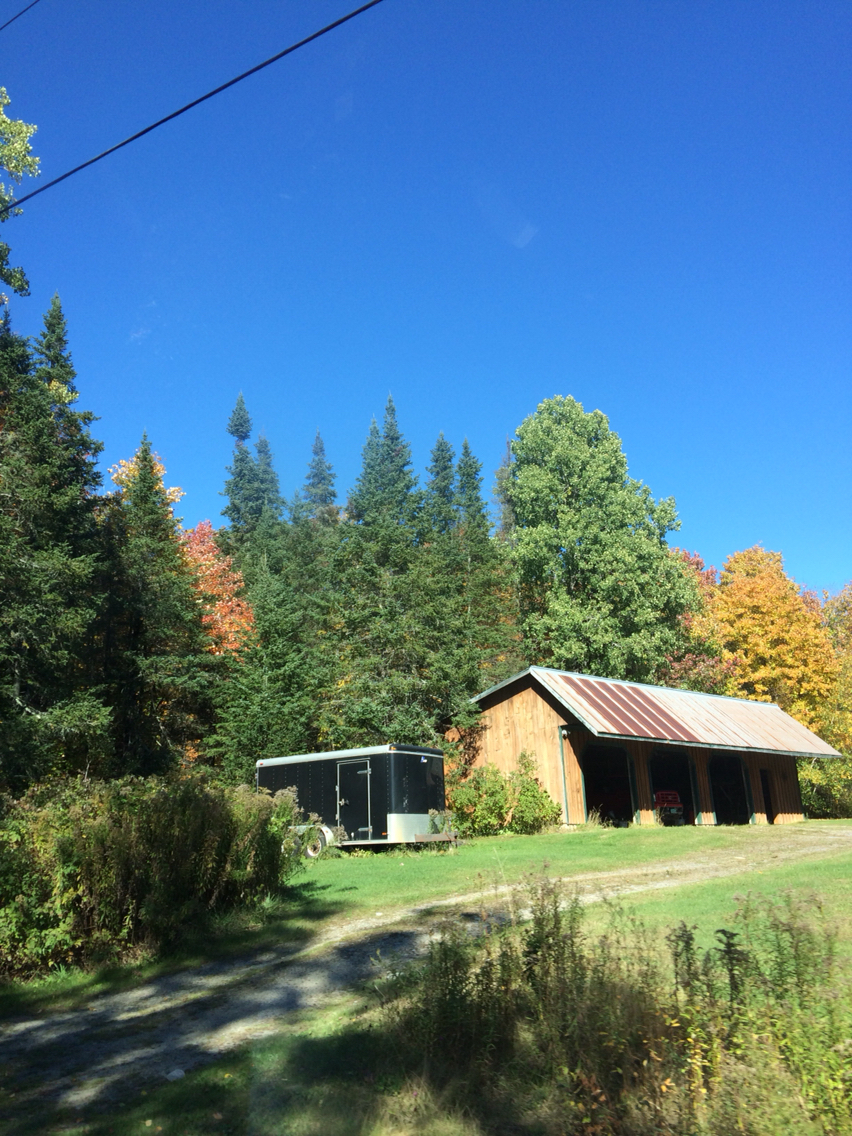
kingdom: Plantae
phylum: Tracheophyta
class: Pinopsida
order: Pinales
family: Pinaceae
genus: Abies
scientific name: Abies balsamea
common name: Balsam fir
